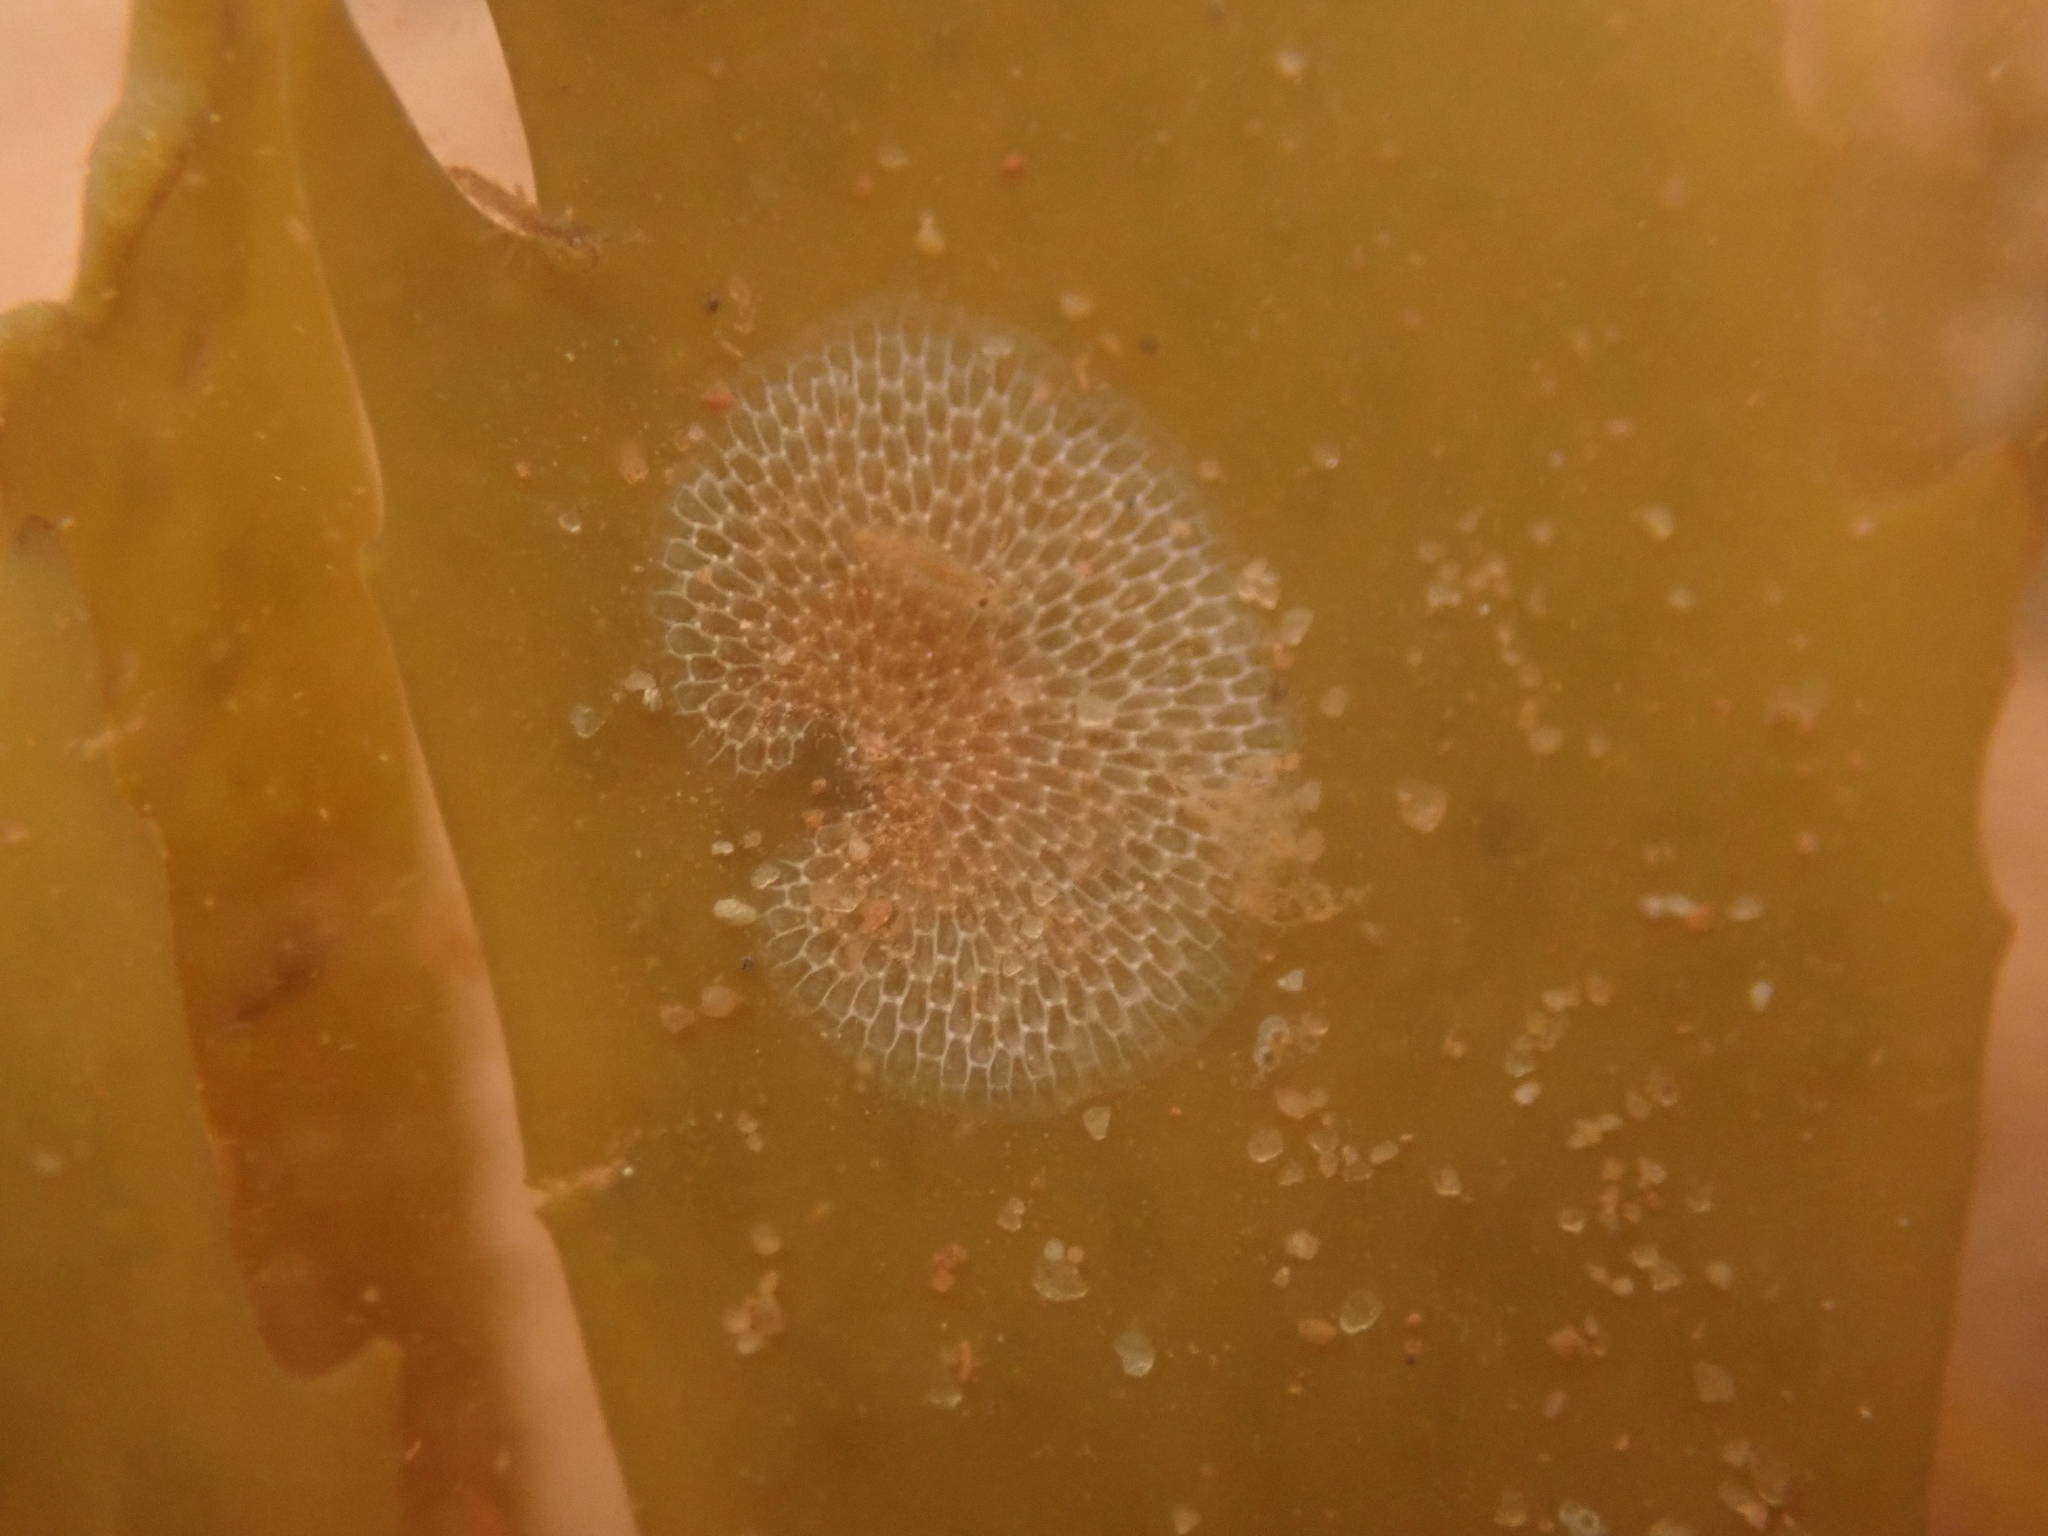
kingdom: Animalia
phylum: Bryozoa
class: Gymnolaemata
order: Cheilostomatida
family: Membraniporidae
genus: Membranipora
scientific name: Membranipora membranacea
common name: Sea mat
